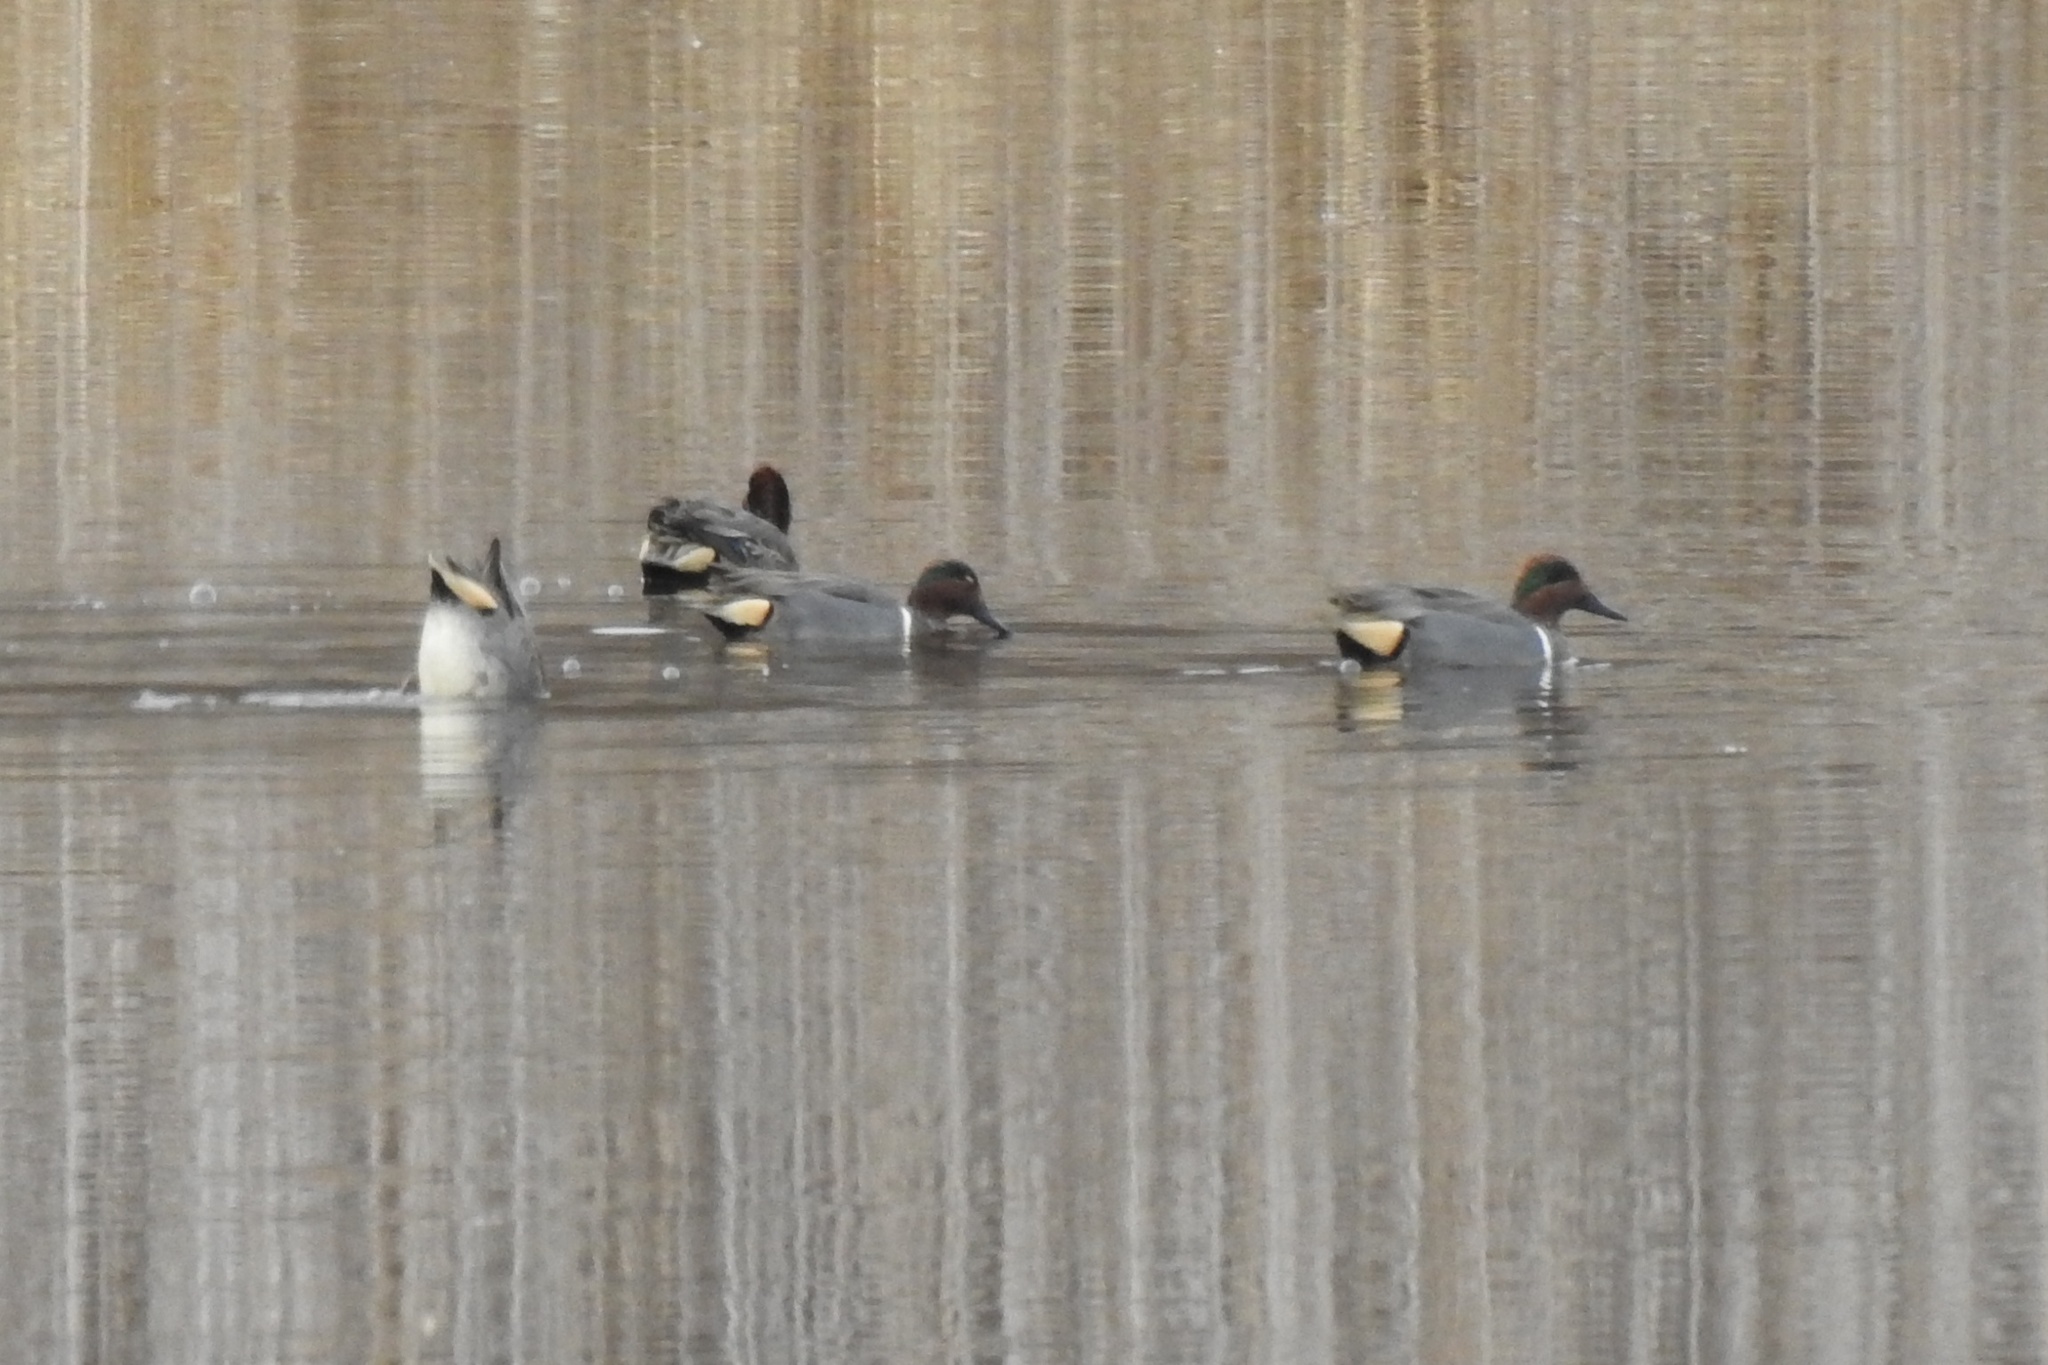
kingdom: Animalia
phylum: Chordata
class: Aves
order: Anseriformes
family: Anatidae
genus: Anas
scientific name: Anas crecca
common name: Eurasian teal
